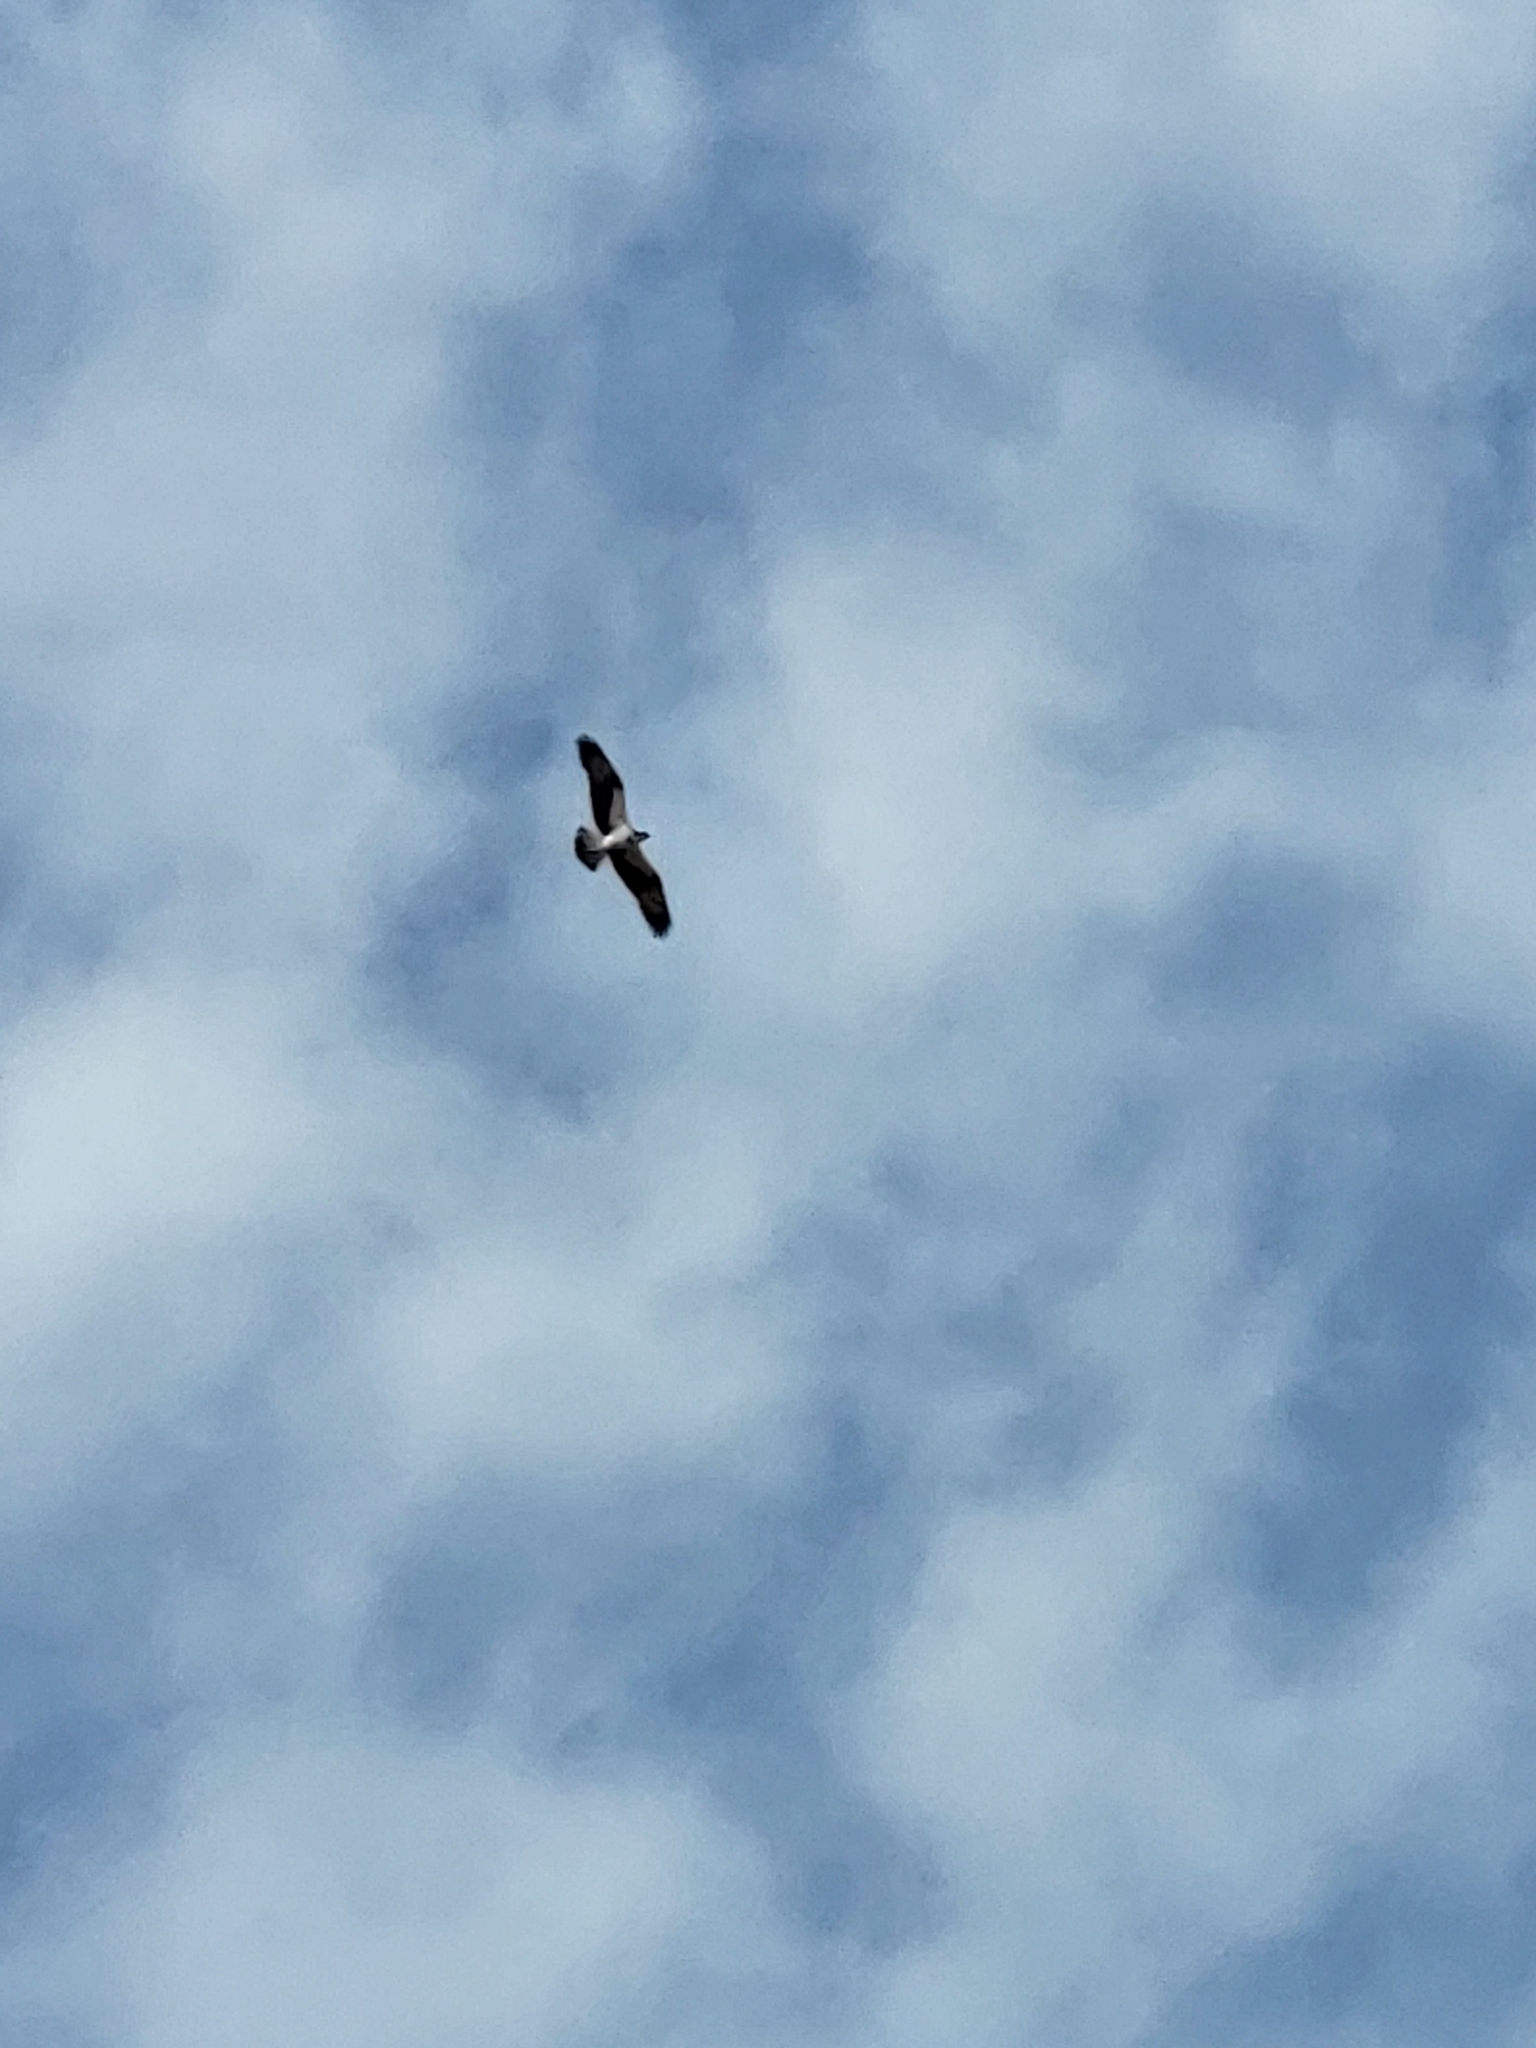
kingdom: Animalia
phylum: Chordata
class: Aves
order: Accipitriformes
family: Pandionidae
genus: Pandion
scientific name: Pandion haliaetus
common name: Osprey
